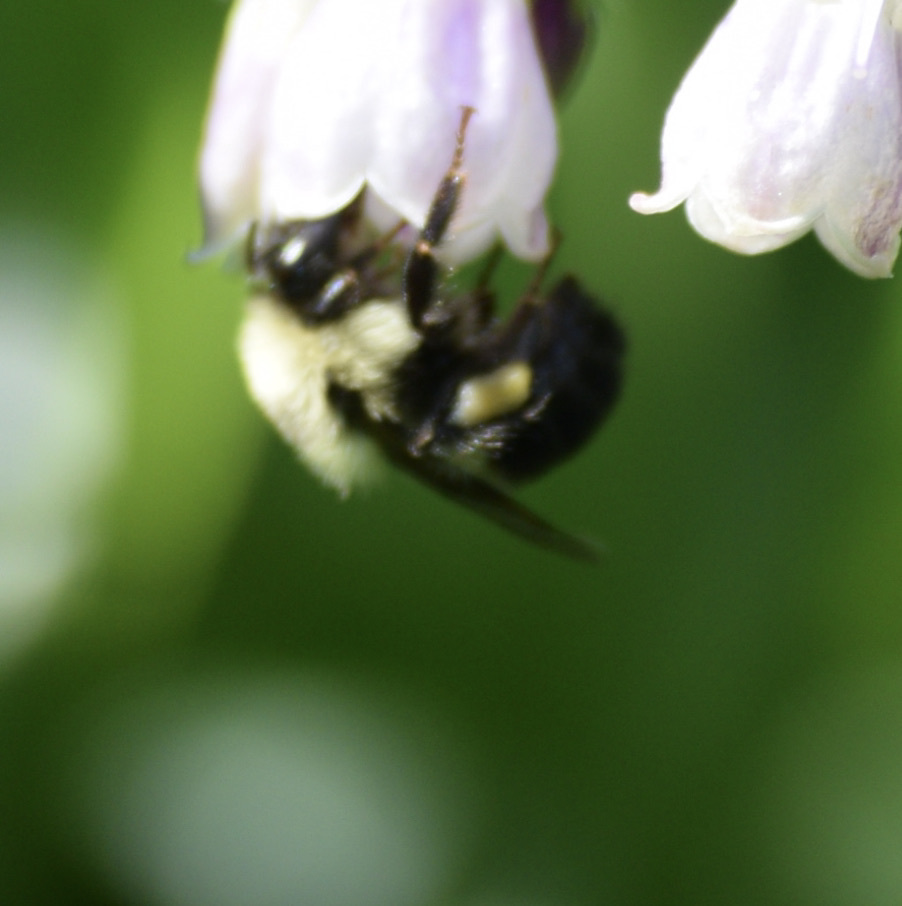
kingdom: Animalia
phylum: Arthropoda
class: Insecta
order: Hymenoptera
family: Apidae
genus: Bombus
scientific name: Bombus bimaculatus
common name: Two-spotted bumble bee
